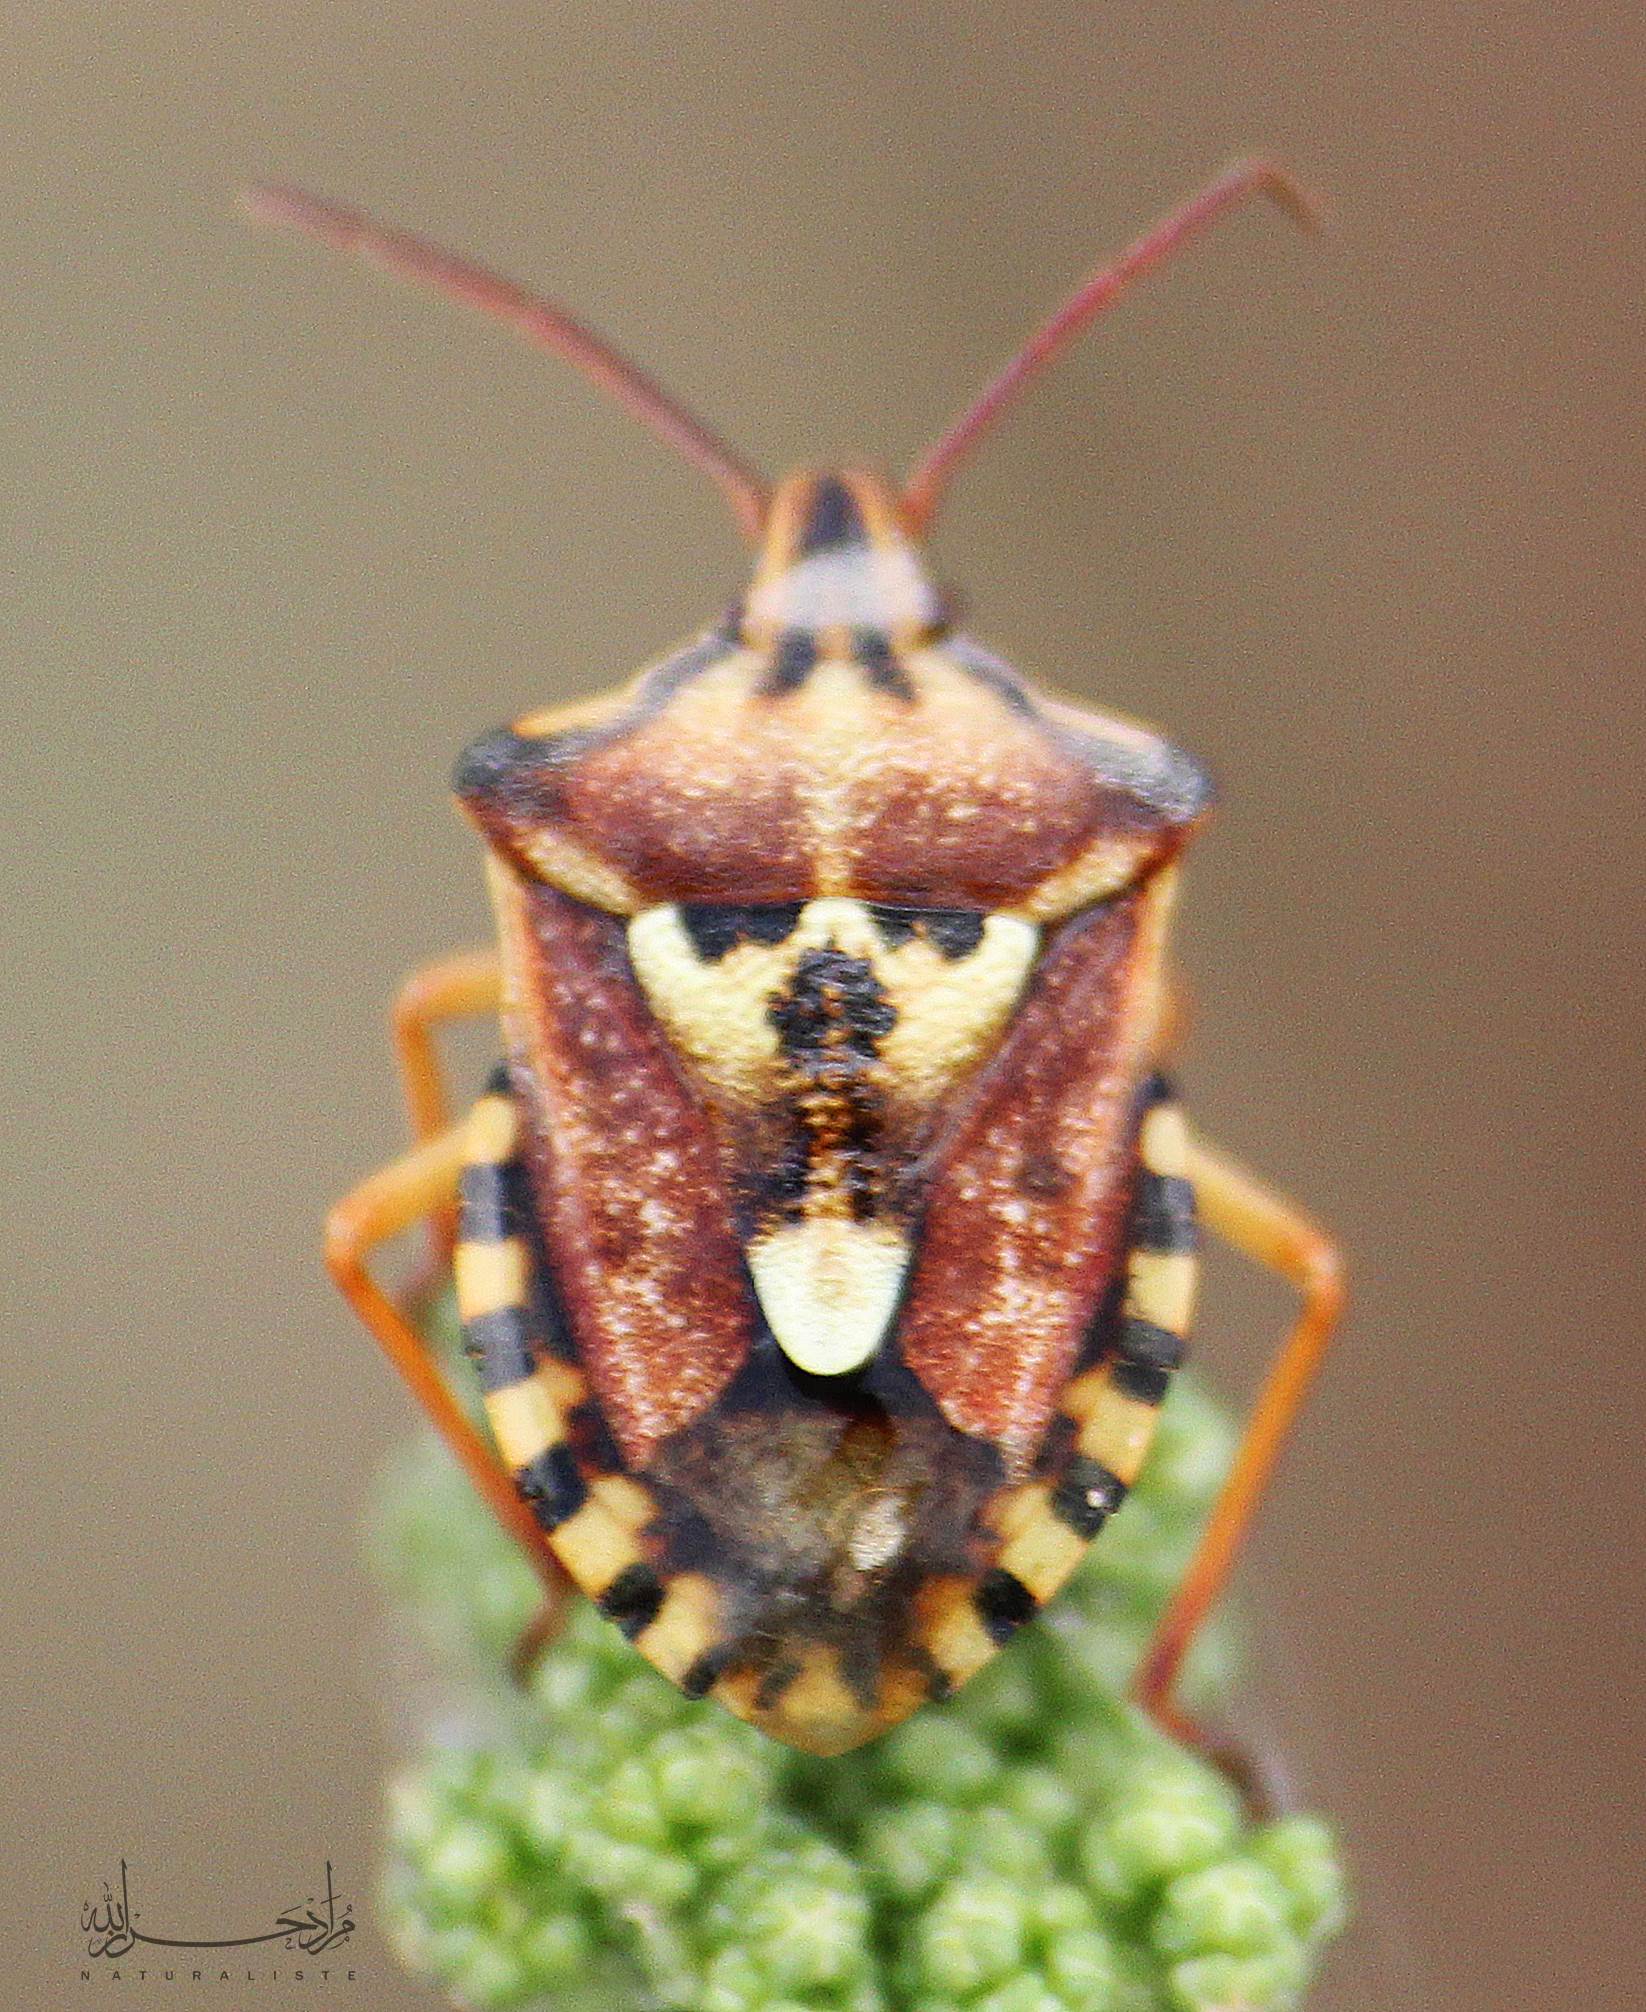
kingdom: Animalia
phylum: Arthropoda
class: Insecta
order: Hemiptera
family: Miridae
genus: Orthops
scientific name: Orthops kalmii
